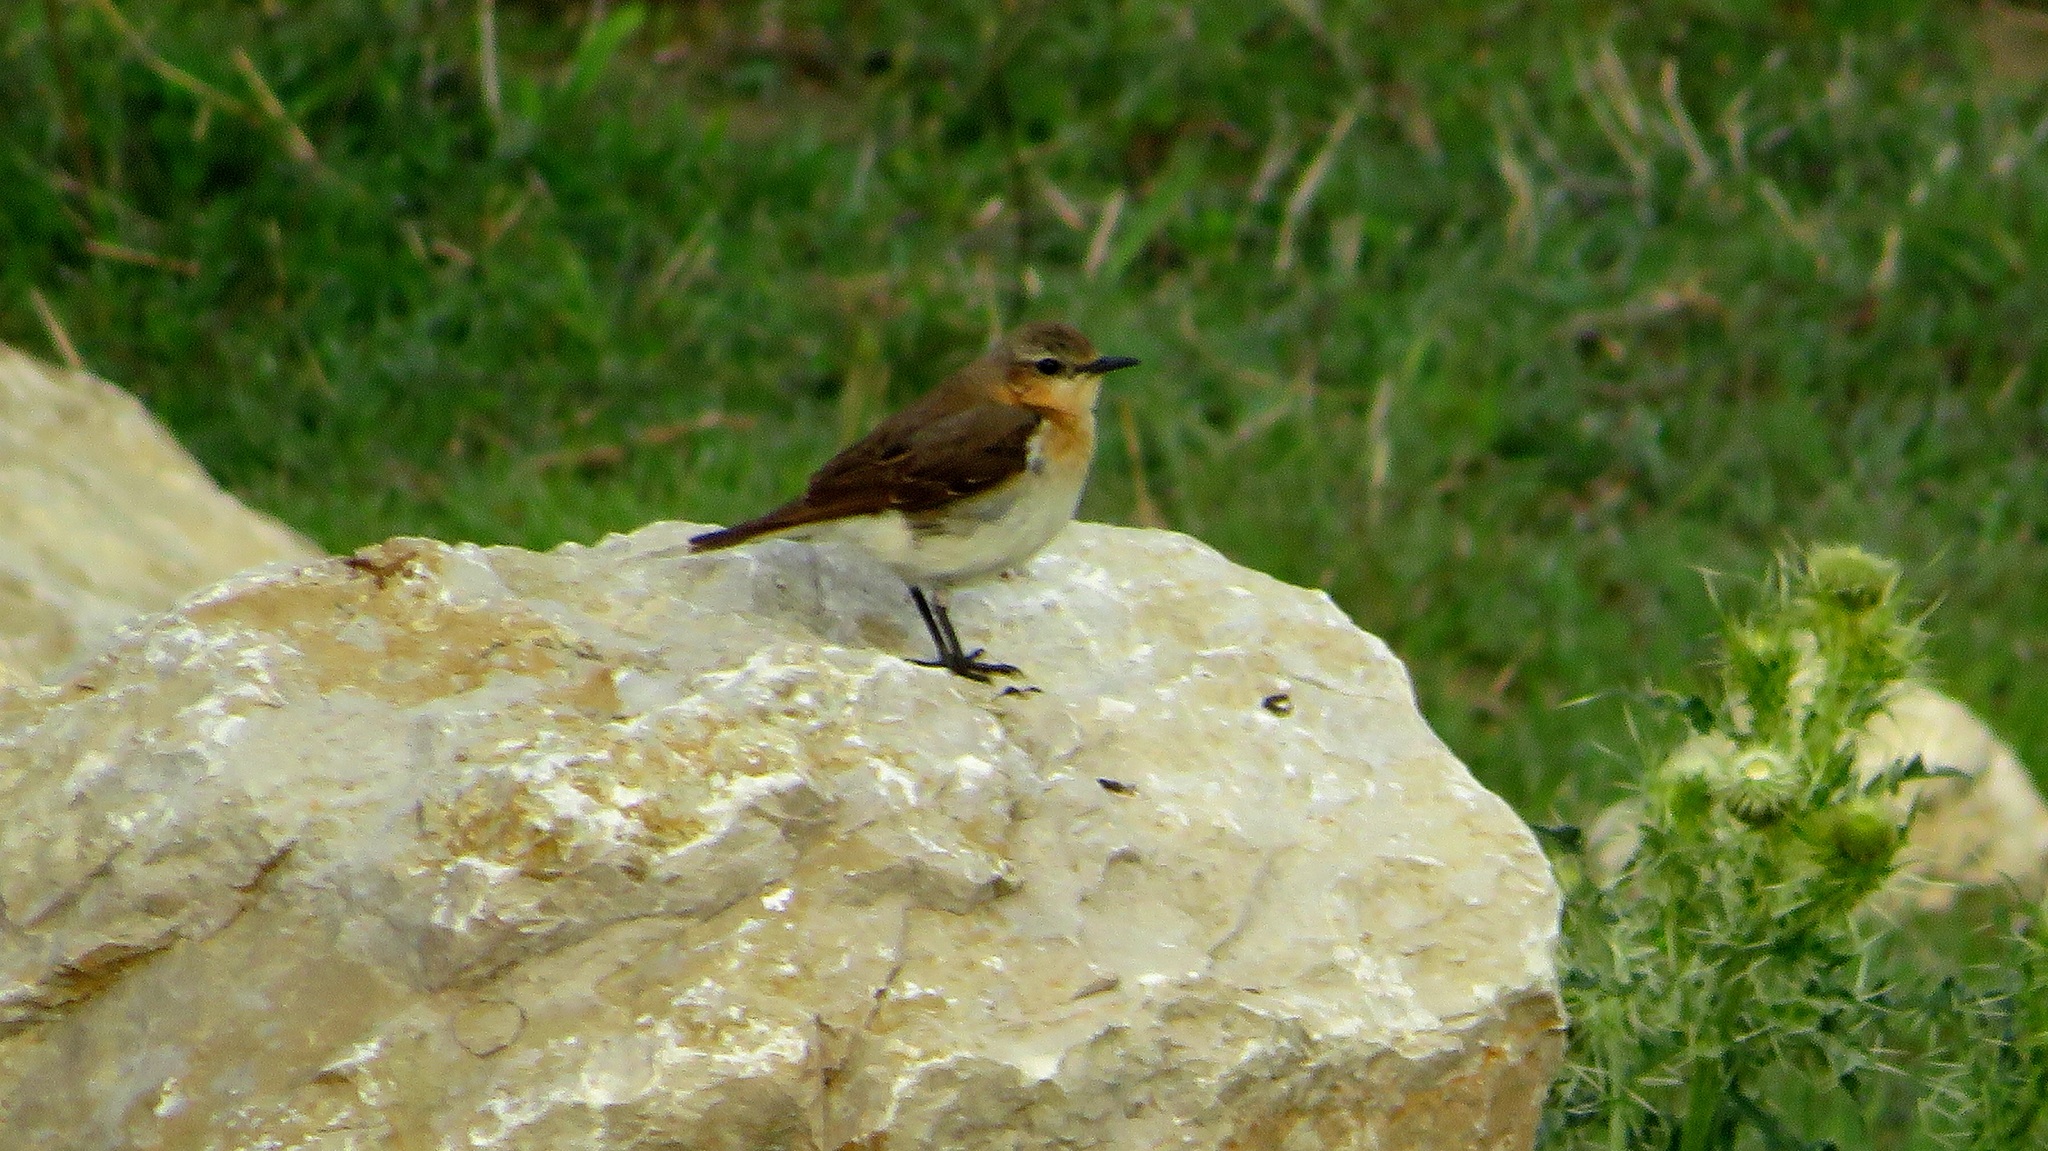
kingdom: Animalia
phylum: Chordata
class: Aves
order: Passeriformes
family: Muscicapidae
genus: Oenanthe
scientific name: Oenanthe oenanthe
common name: Northern wheatear
